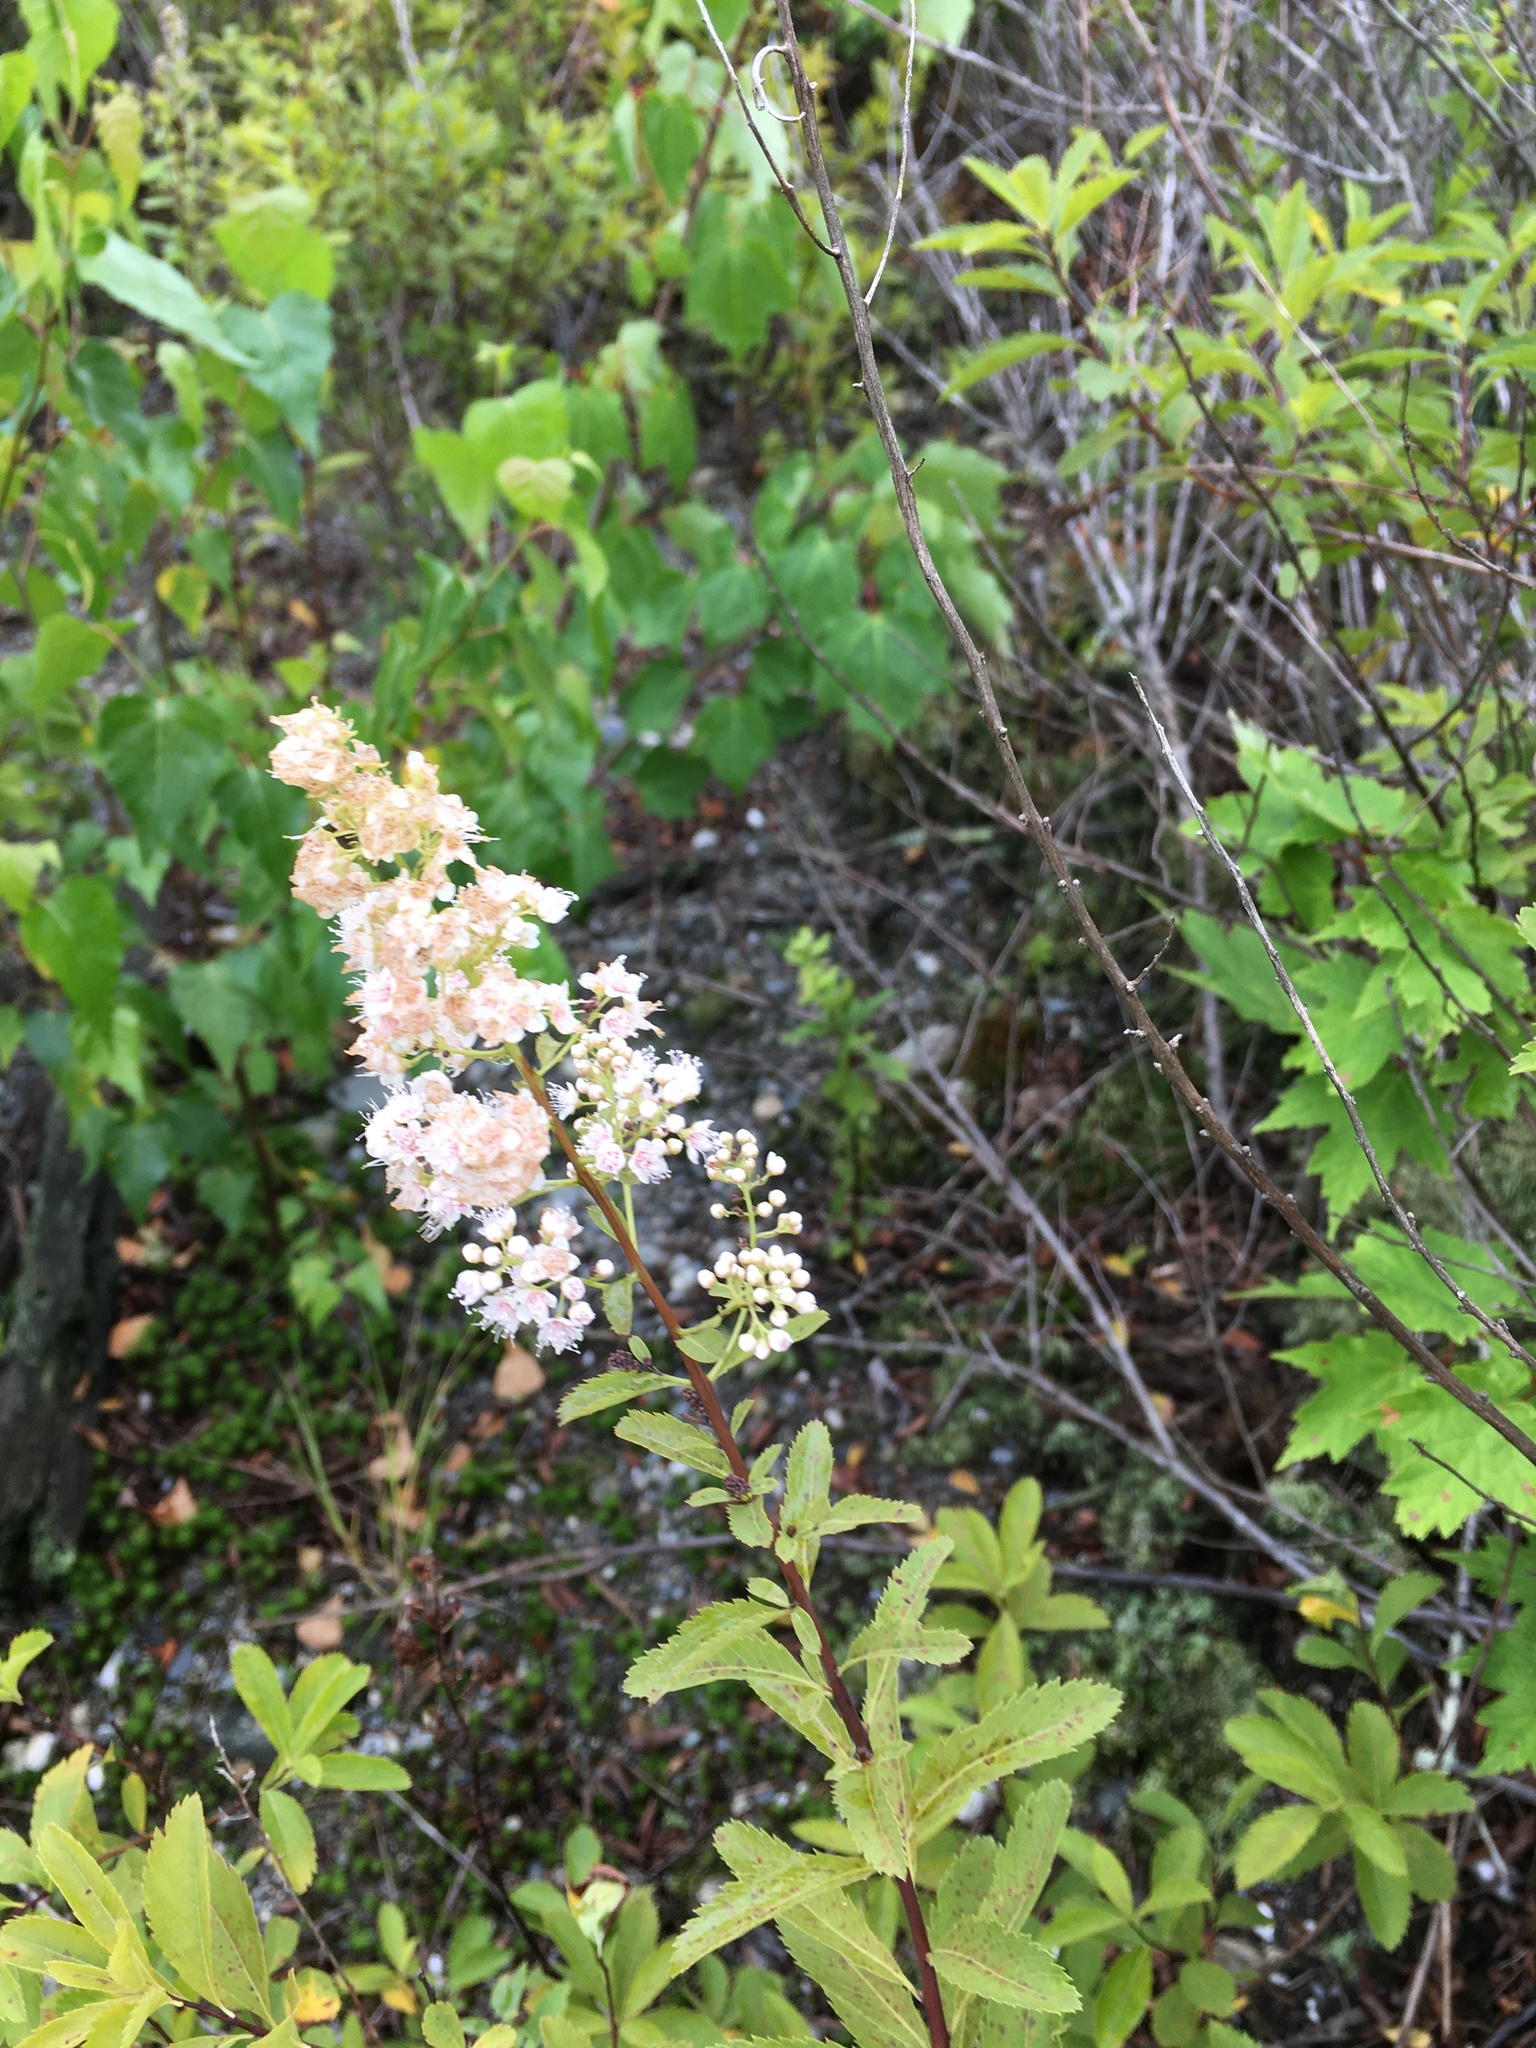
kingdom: Plantae
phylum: Tracheophyta
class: Magnoliopsida
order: Rosales
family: Rosaceae
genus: Spiraea
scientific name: Spiraea alba
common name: Pale bridewort
